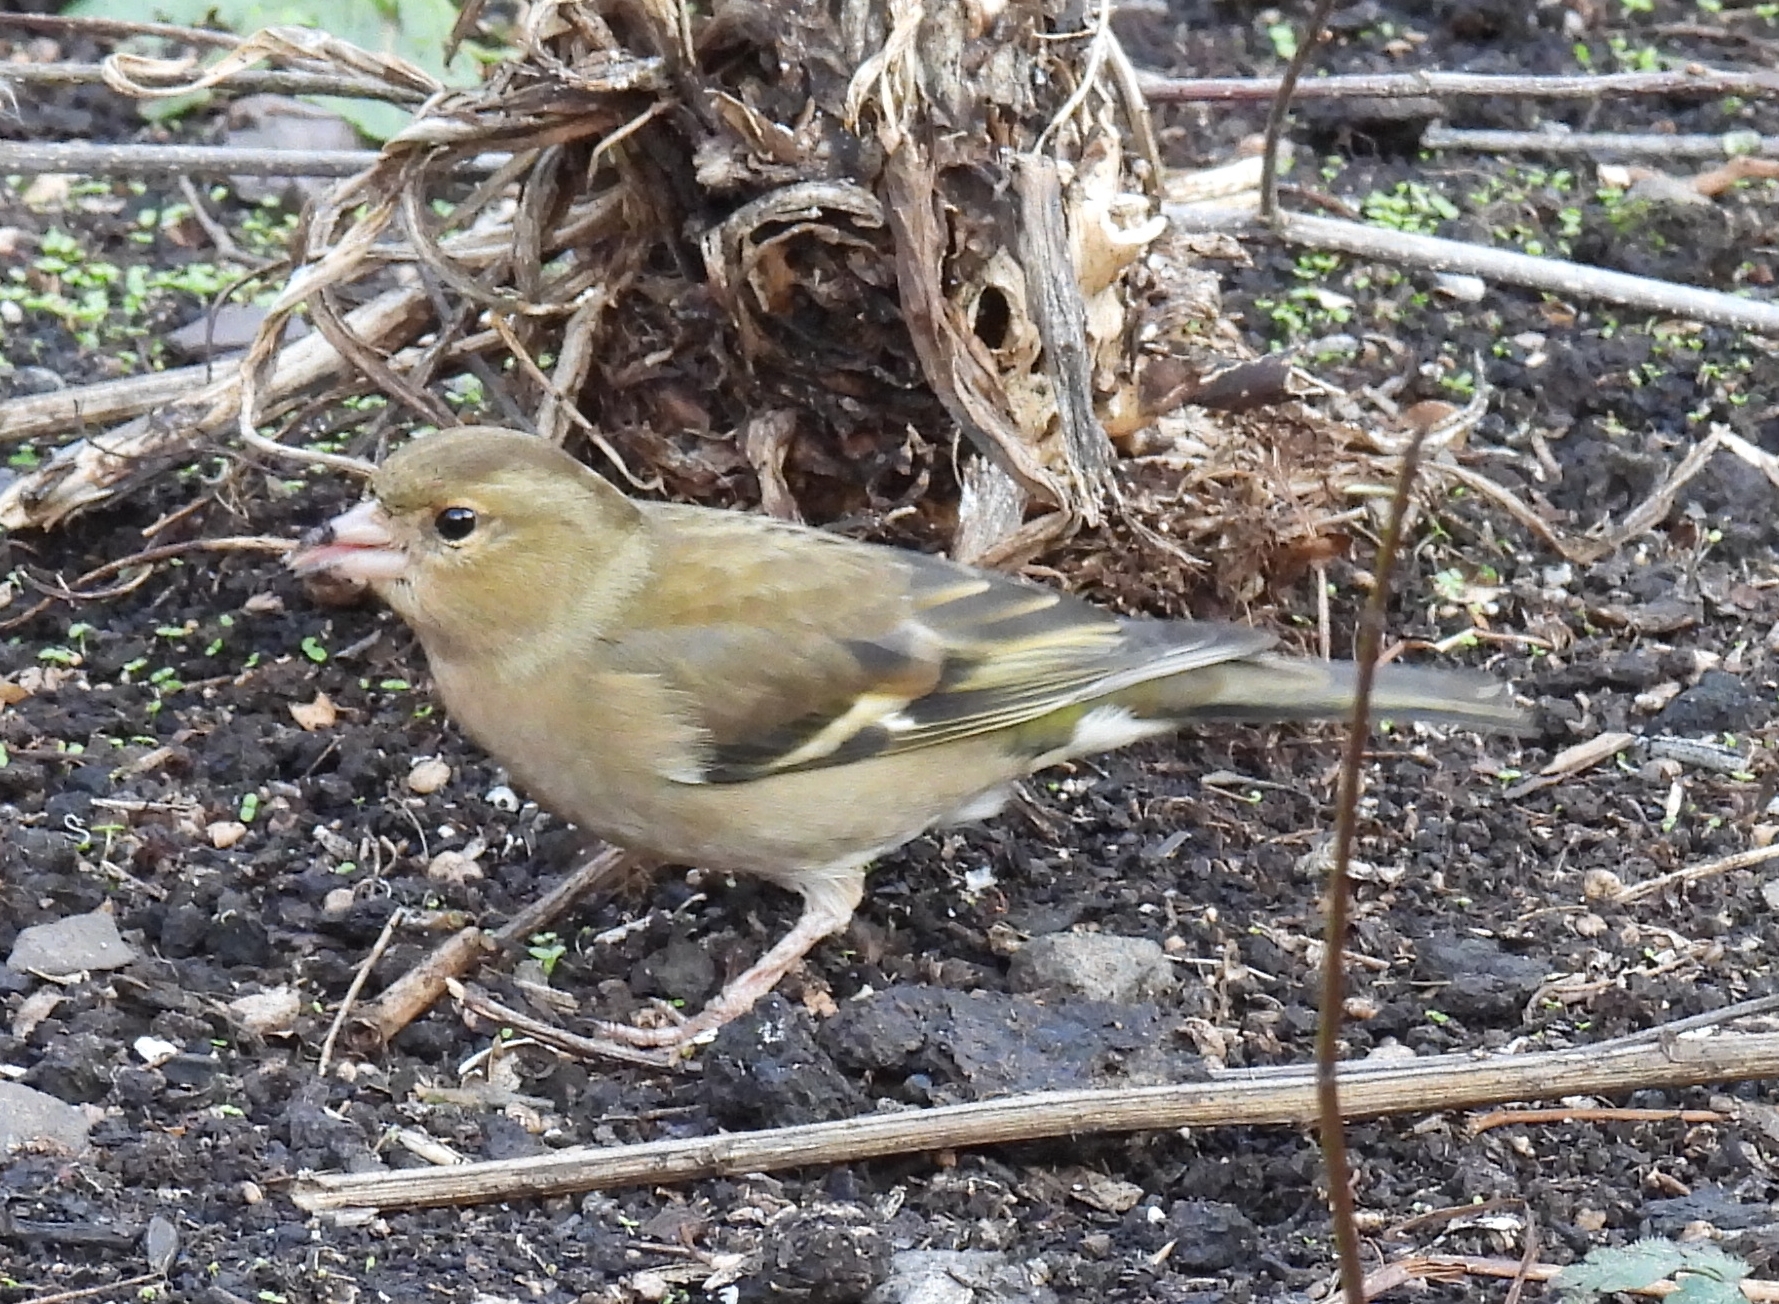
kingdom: Animalia
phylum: Chordata
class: Aves
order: Passeriformes
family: Fringillidae
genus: Fringilla
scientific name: Fringilla coelebs
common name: Common chaffinch
